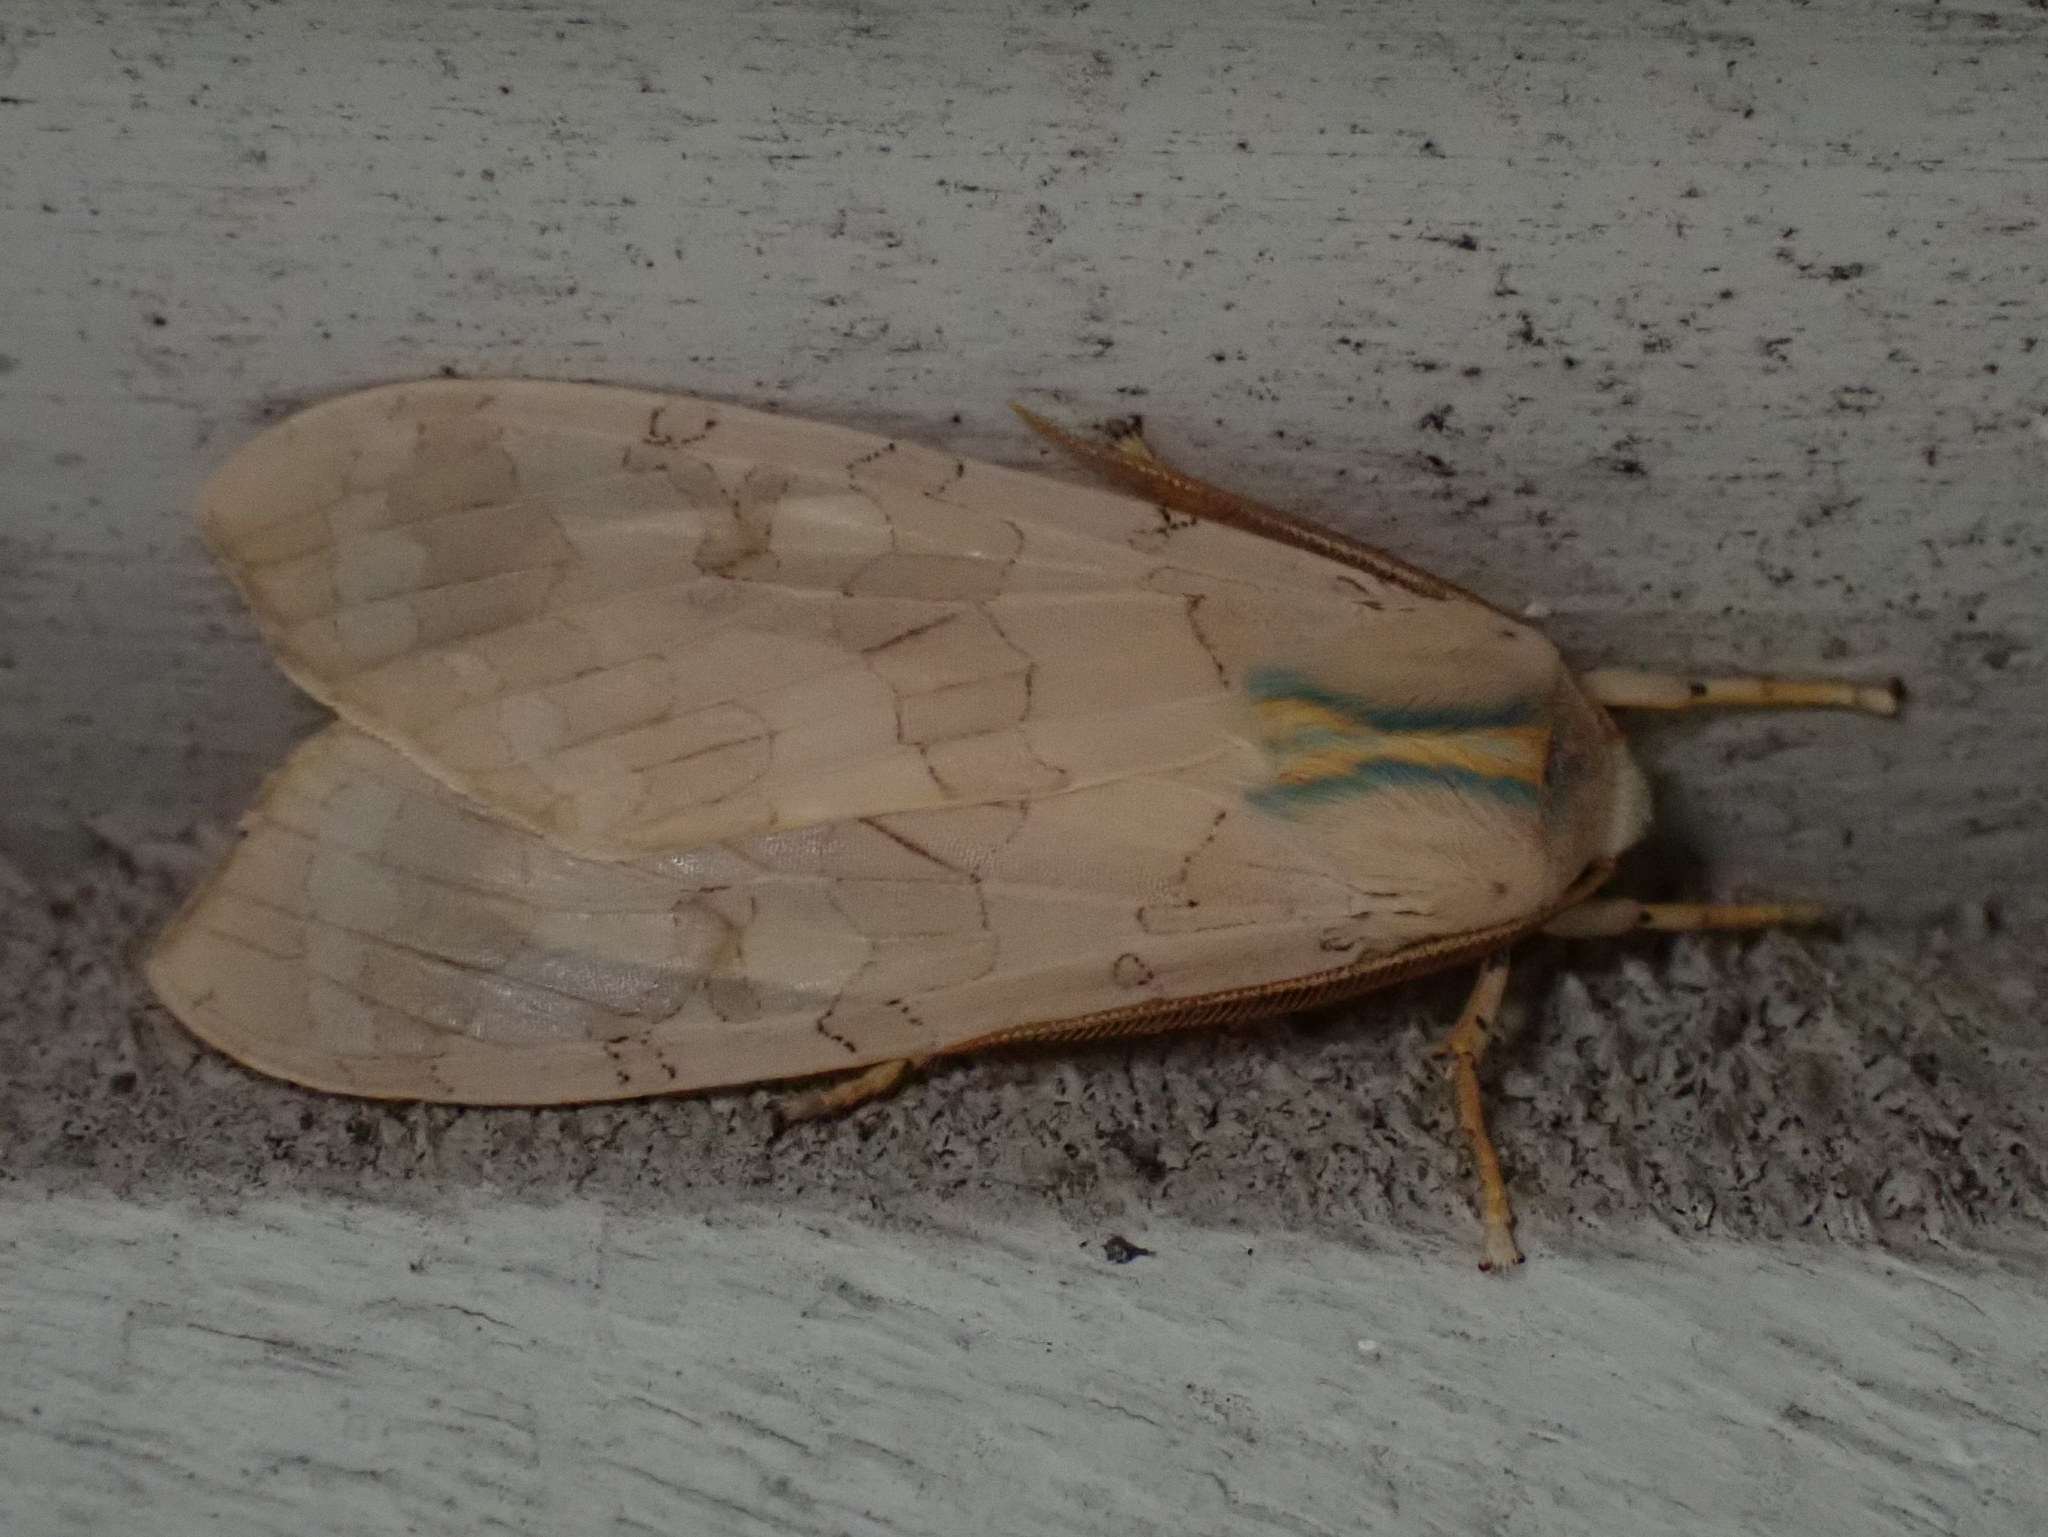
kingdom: Animalia
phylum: Arthropoda
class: Insecta
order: Lepidoptera
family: Erebidae
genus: Halysidota
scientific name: Halysidota tessellaris
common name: Banded tussock moth
